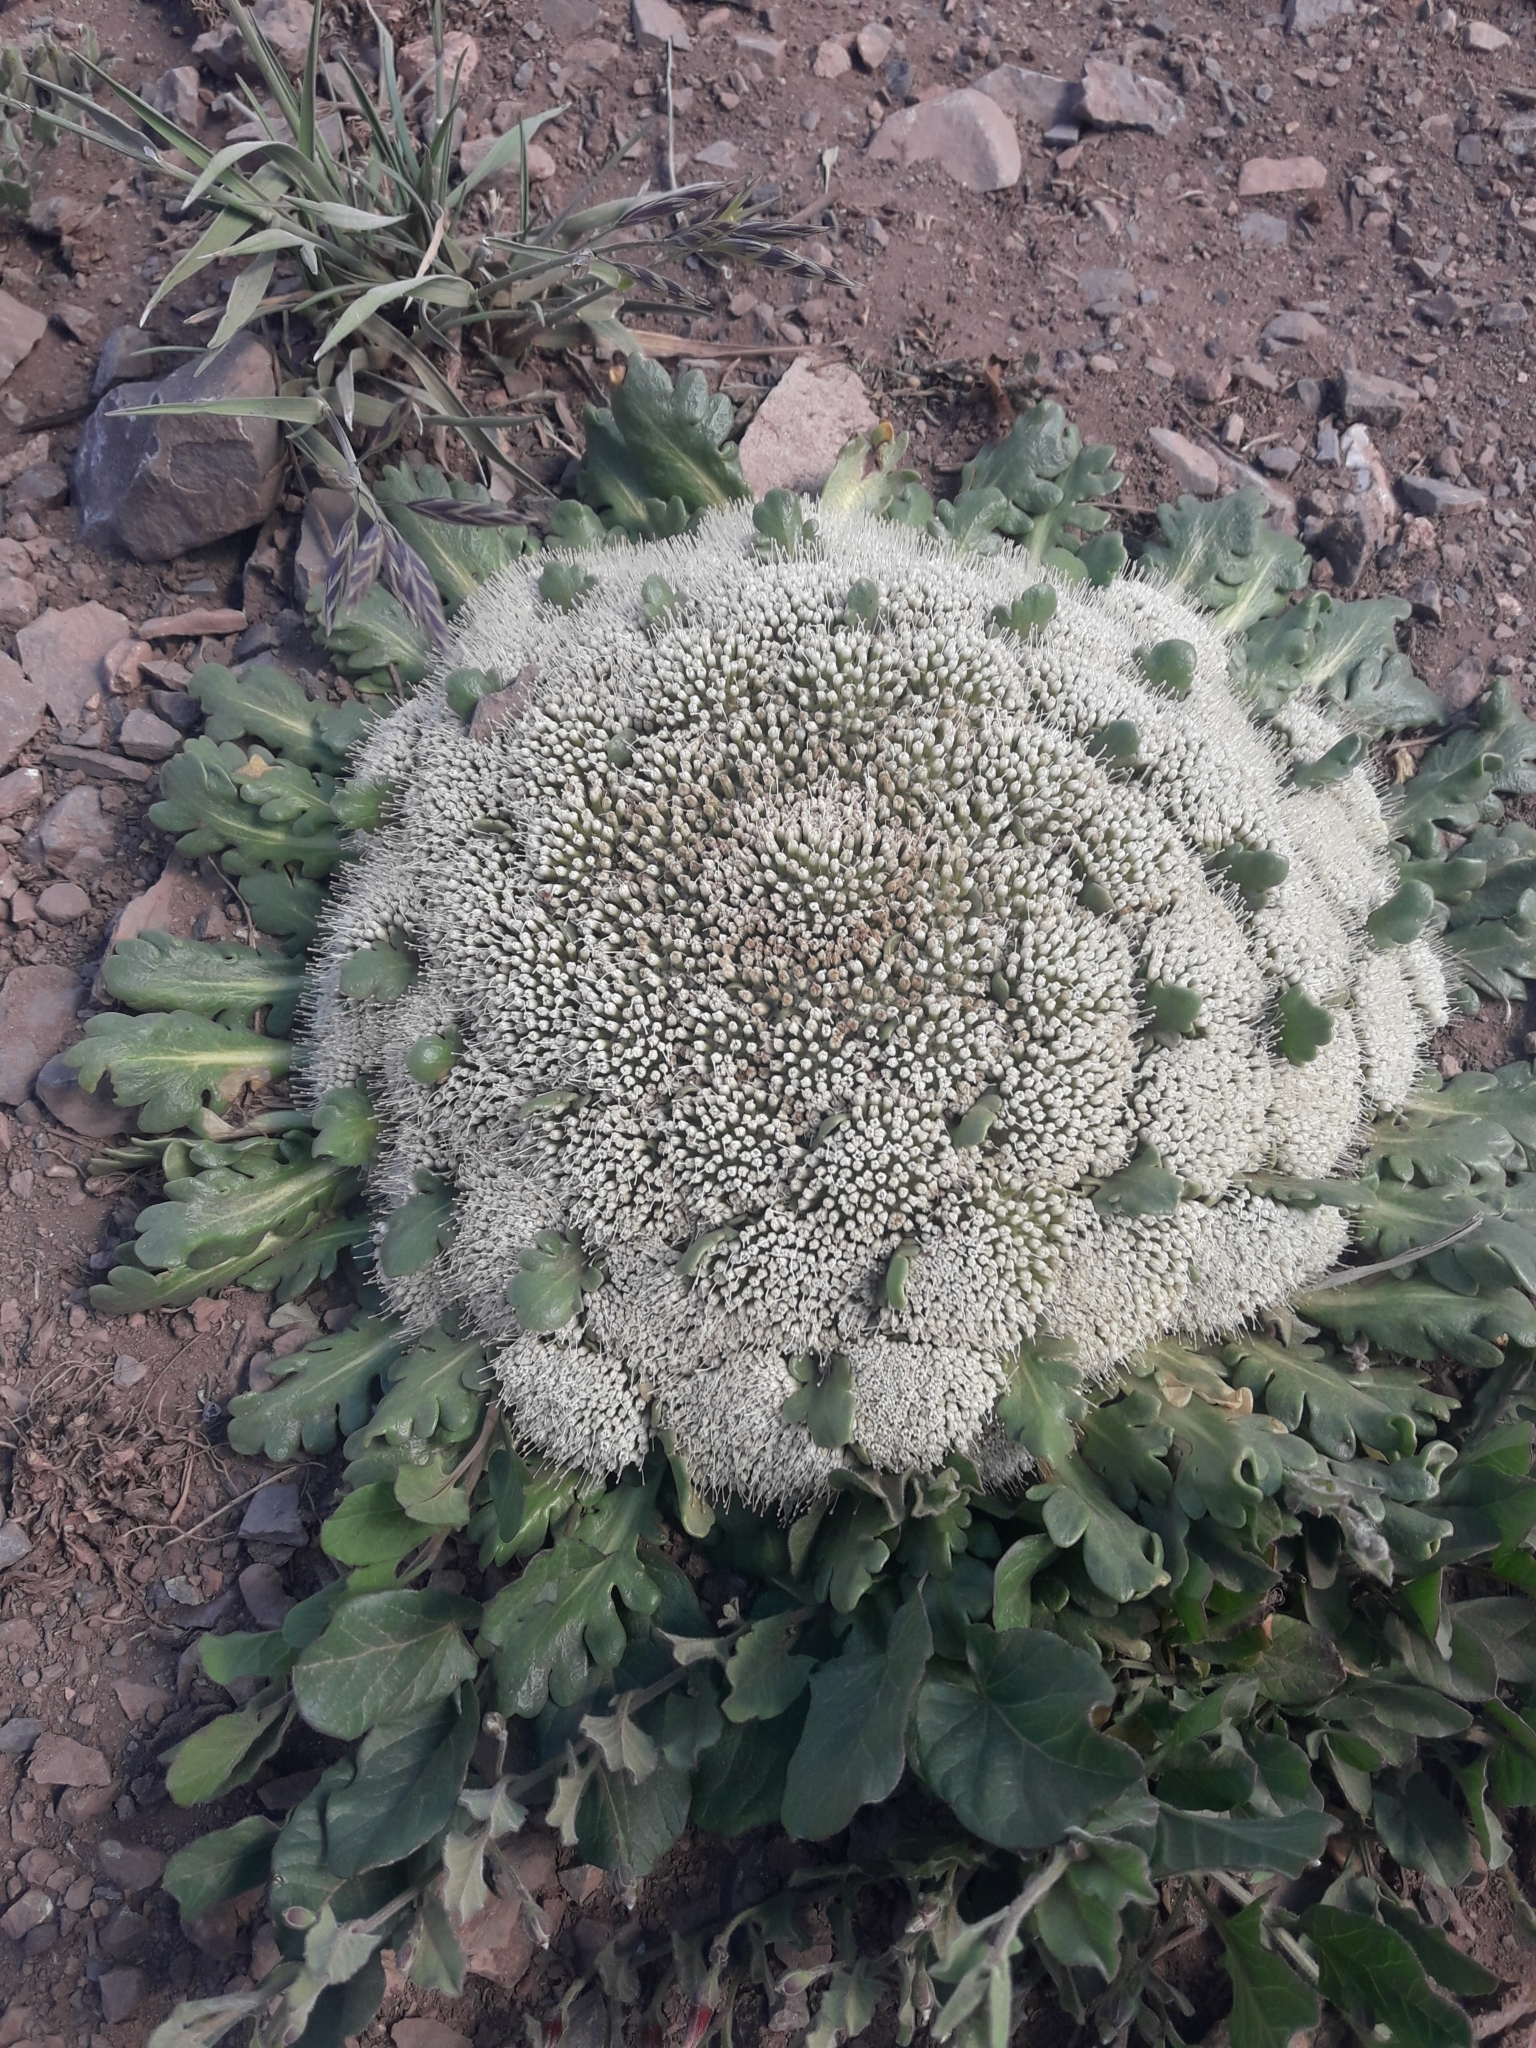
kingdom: Plantae
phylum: Tracheophyta
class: Magnoliopsida
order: Asterales
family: Calyceraceae
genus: Gamocarpha
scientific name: Gamocarpha compacta
